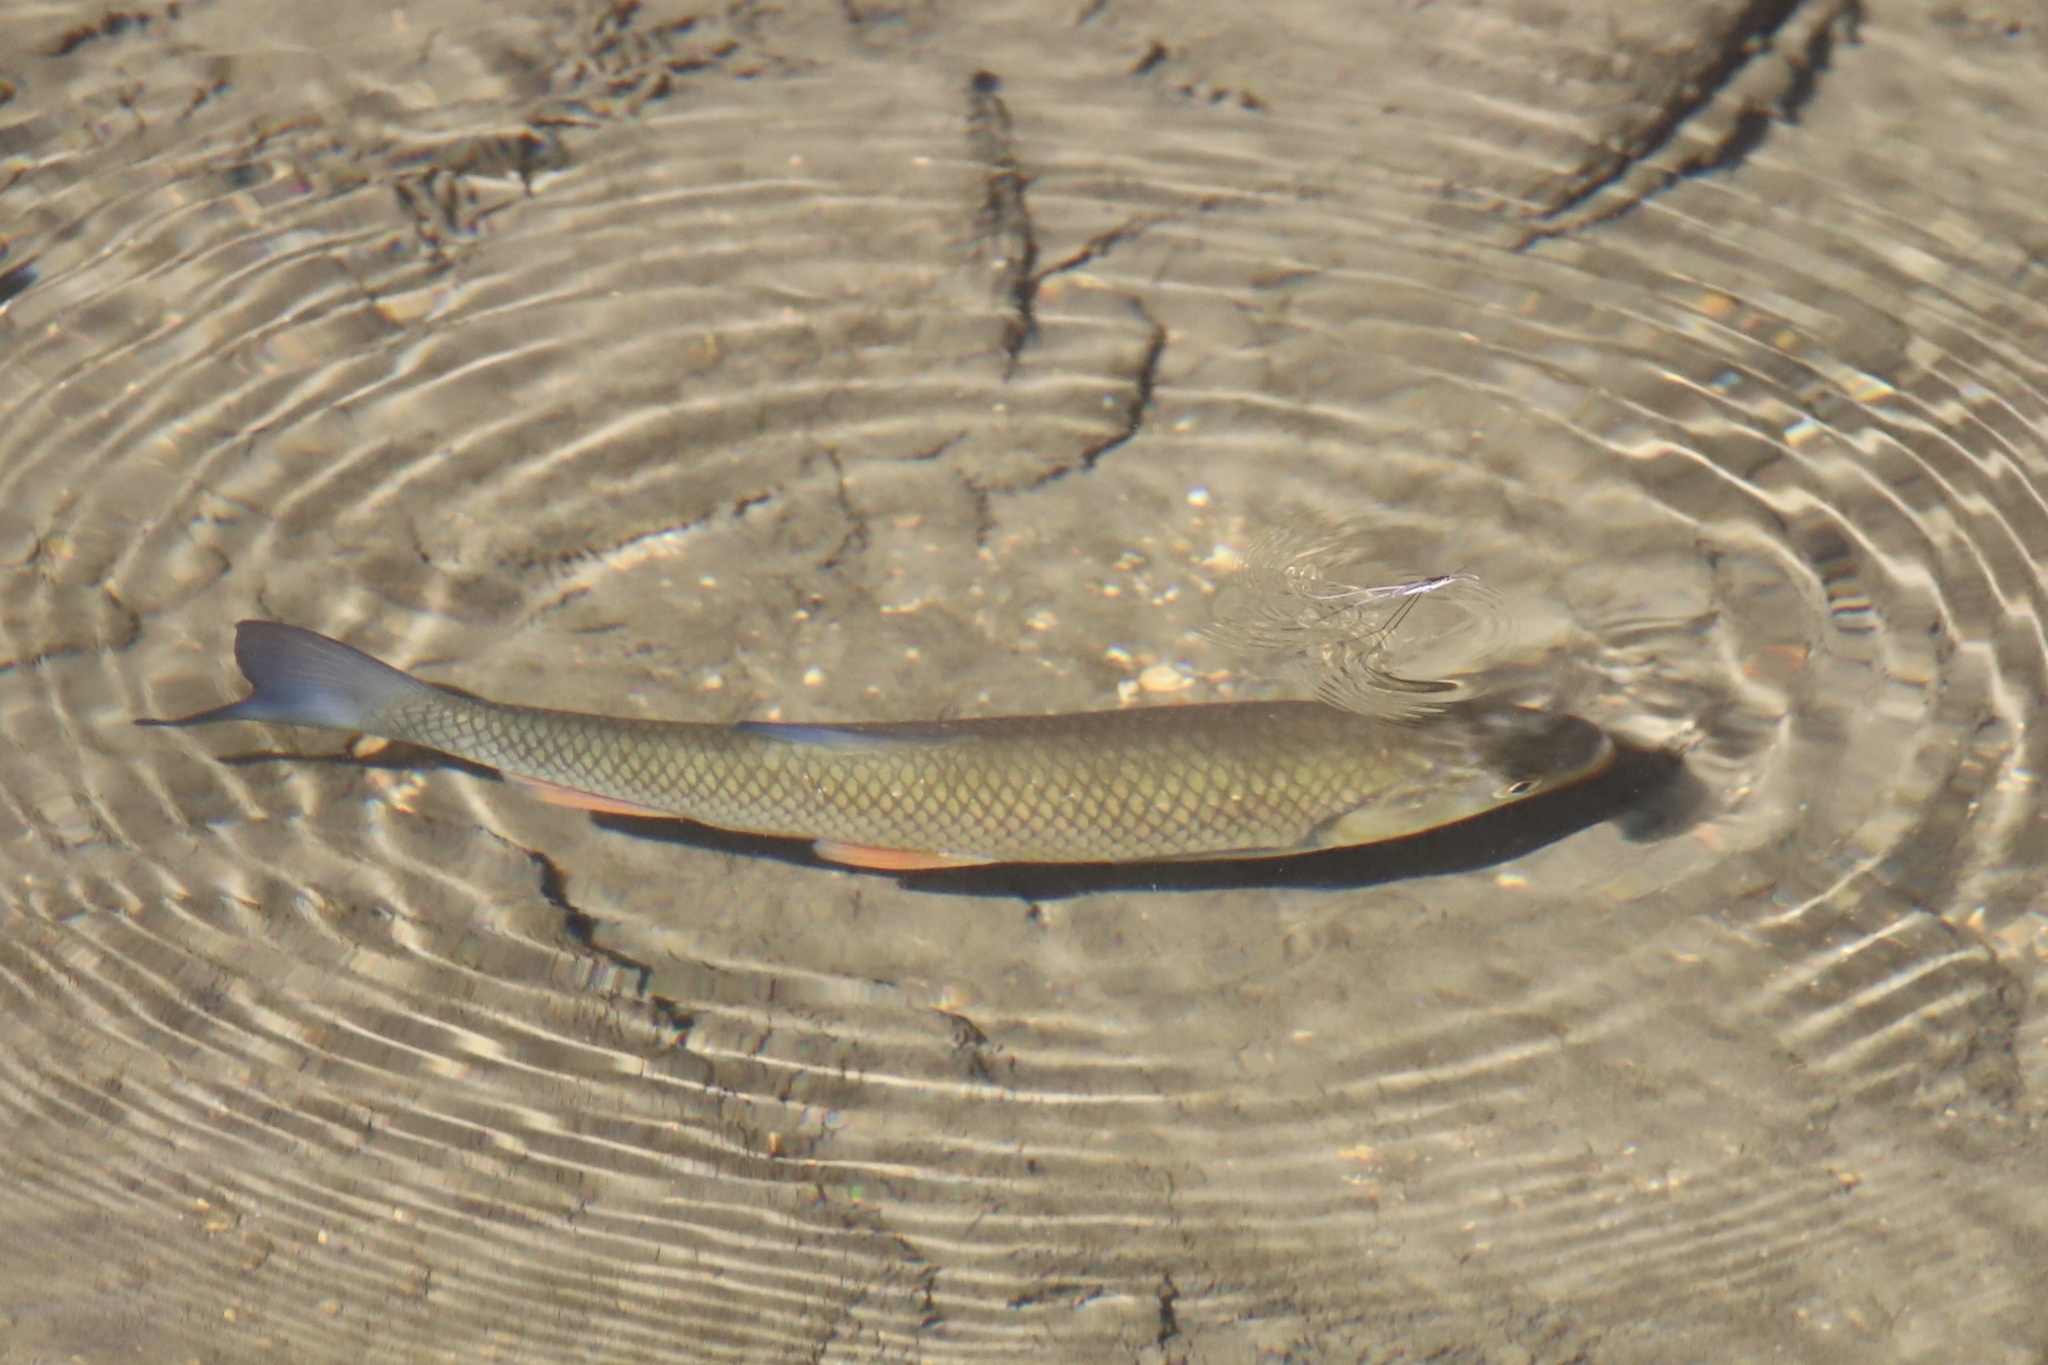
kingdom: Animalia
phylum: Chordata
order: Cypriniformes
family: Cyprinidae
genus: Squalius
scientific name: Squalius cephalus
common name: Chub
